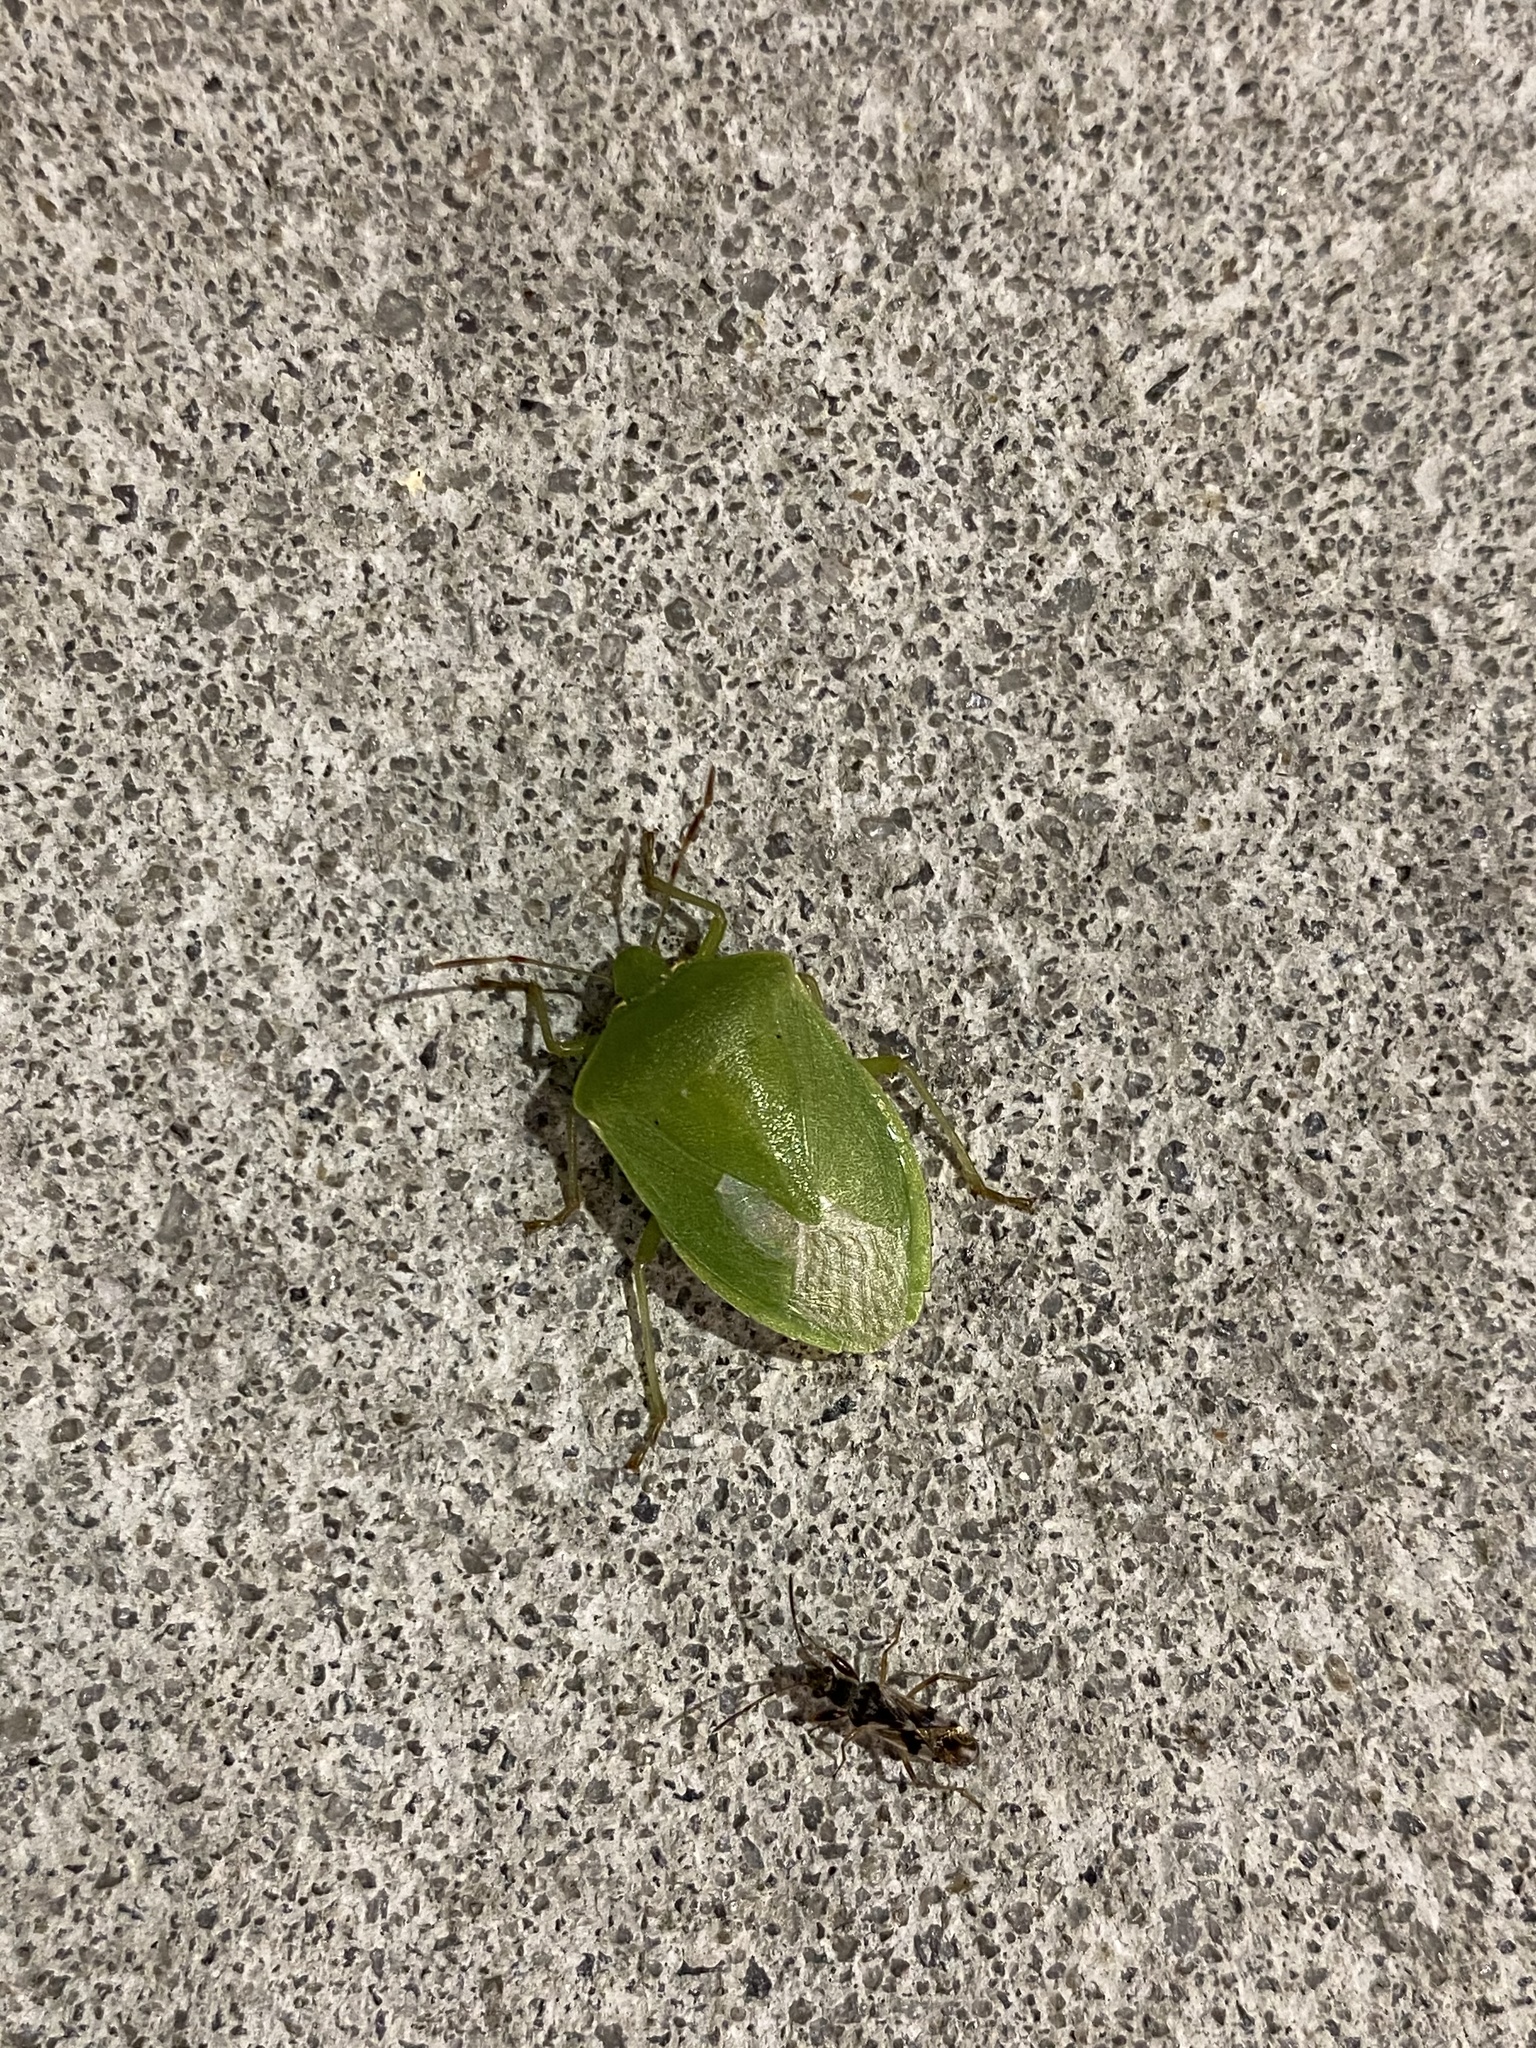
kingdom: Animalia
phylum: Arthropoda
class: Insecta
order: Hemiptera
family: Pentatomidae
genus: Nezara
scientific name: Nezara viridula
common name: Southern green stink bug
